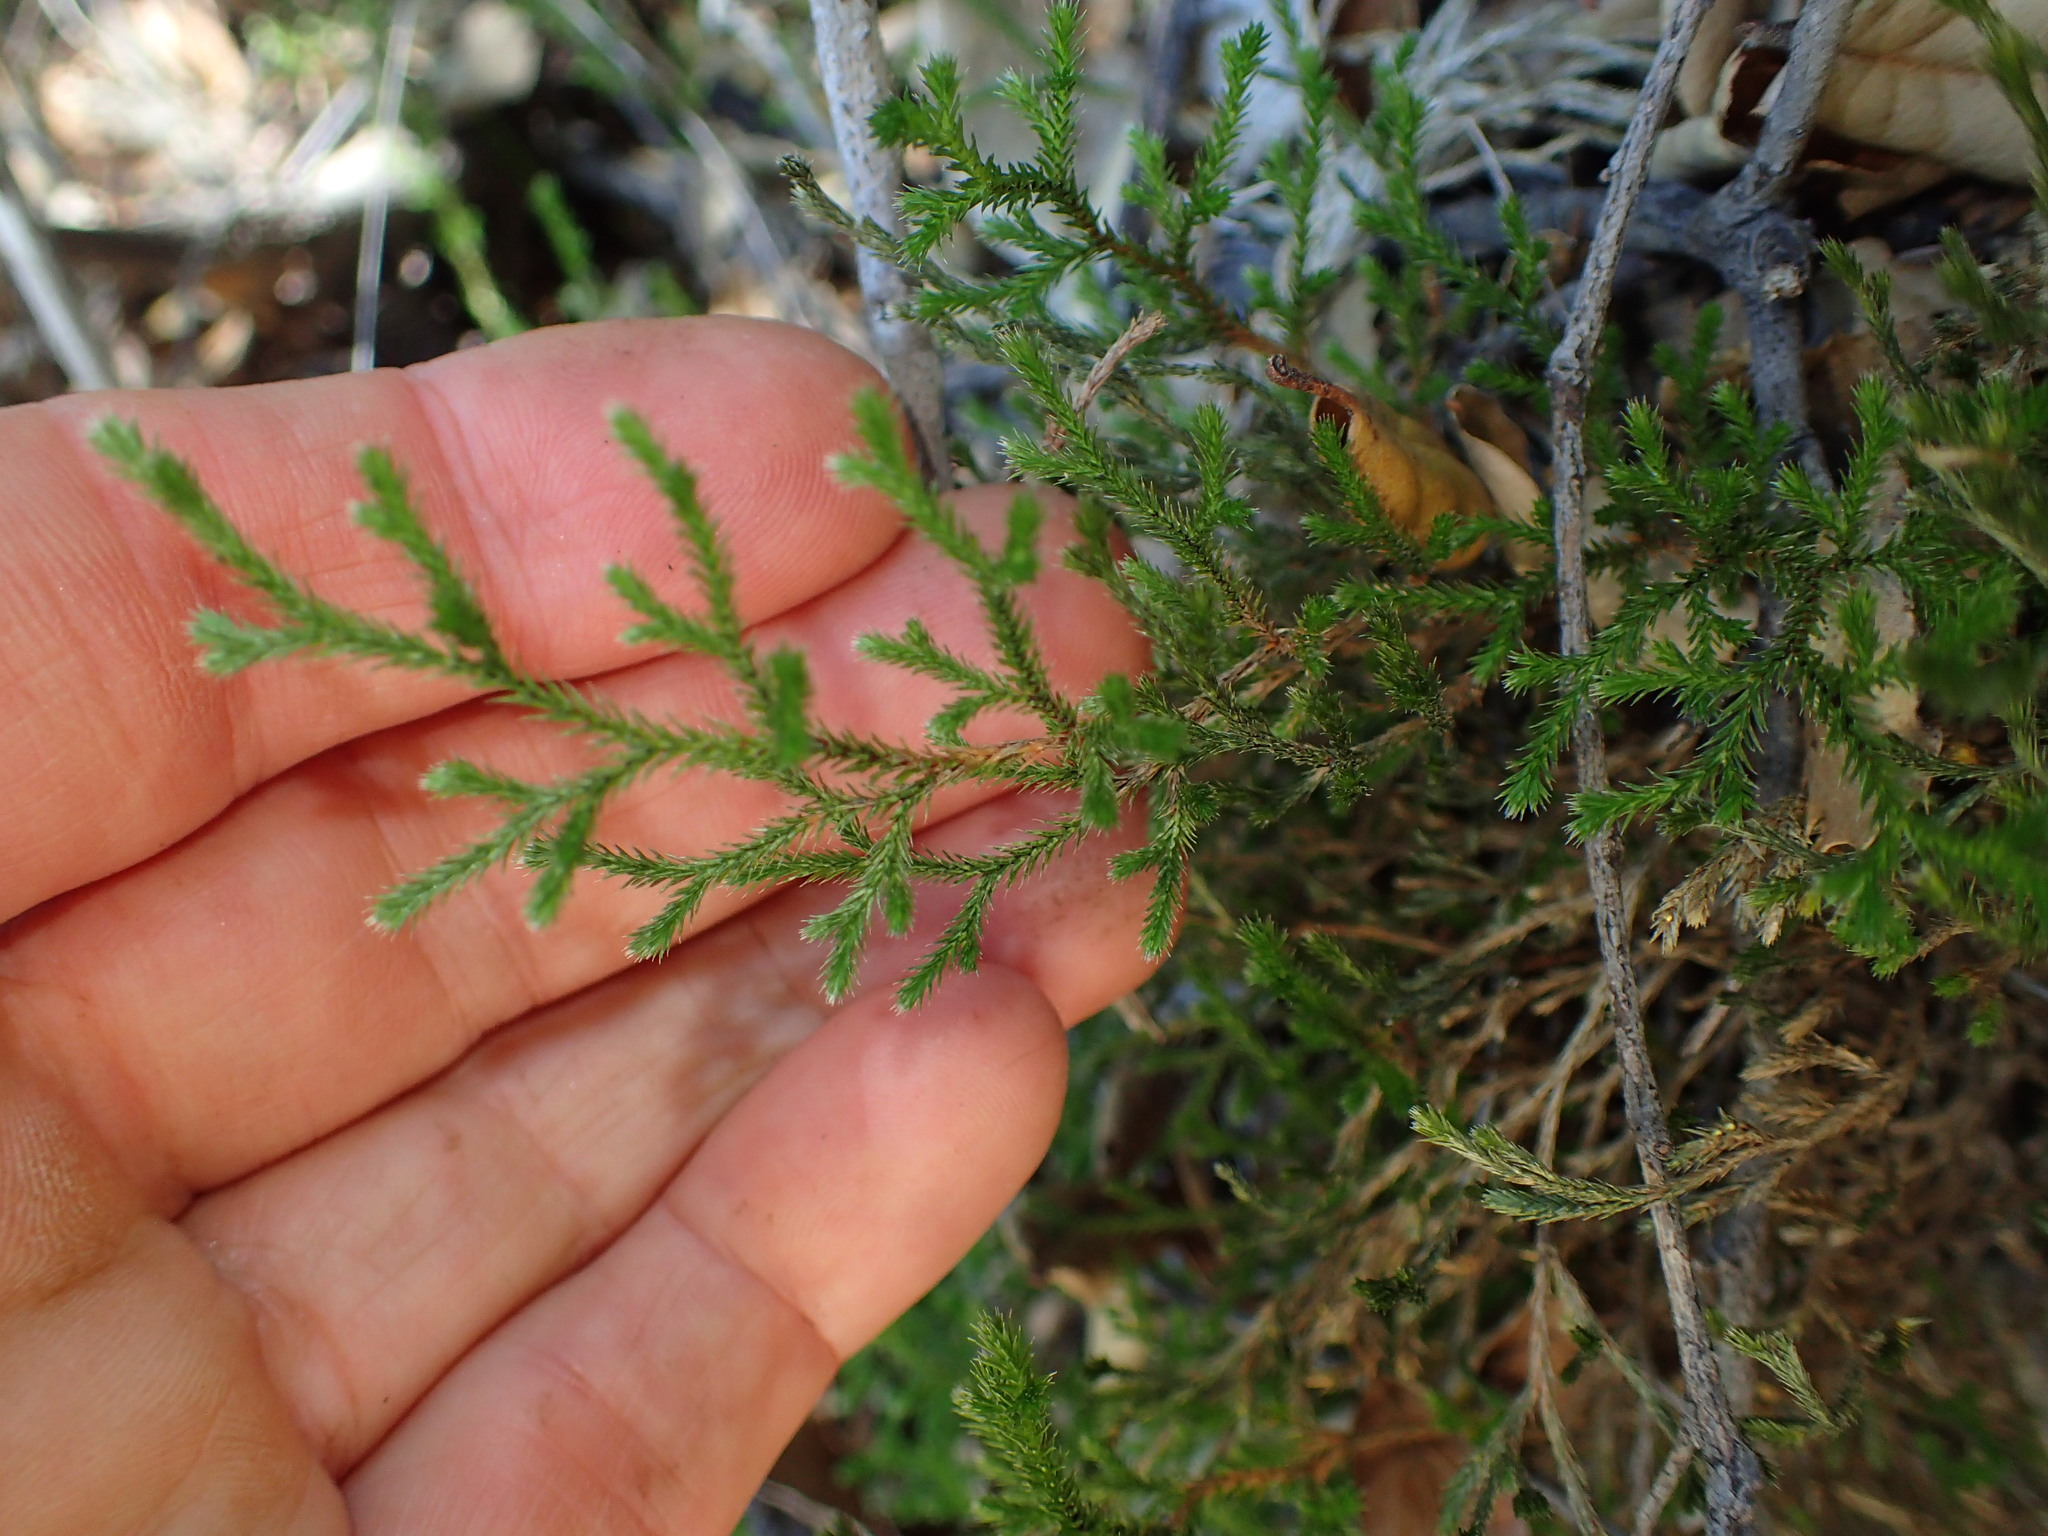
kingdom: Plantae
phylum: Tracheophyta
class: Lycopodiopsida
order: Selaginellales
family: Selaginellaceae
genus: Selaginella
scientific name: Selaginella bigelovii
